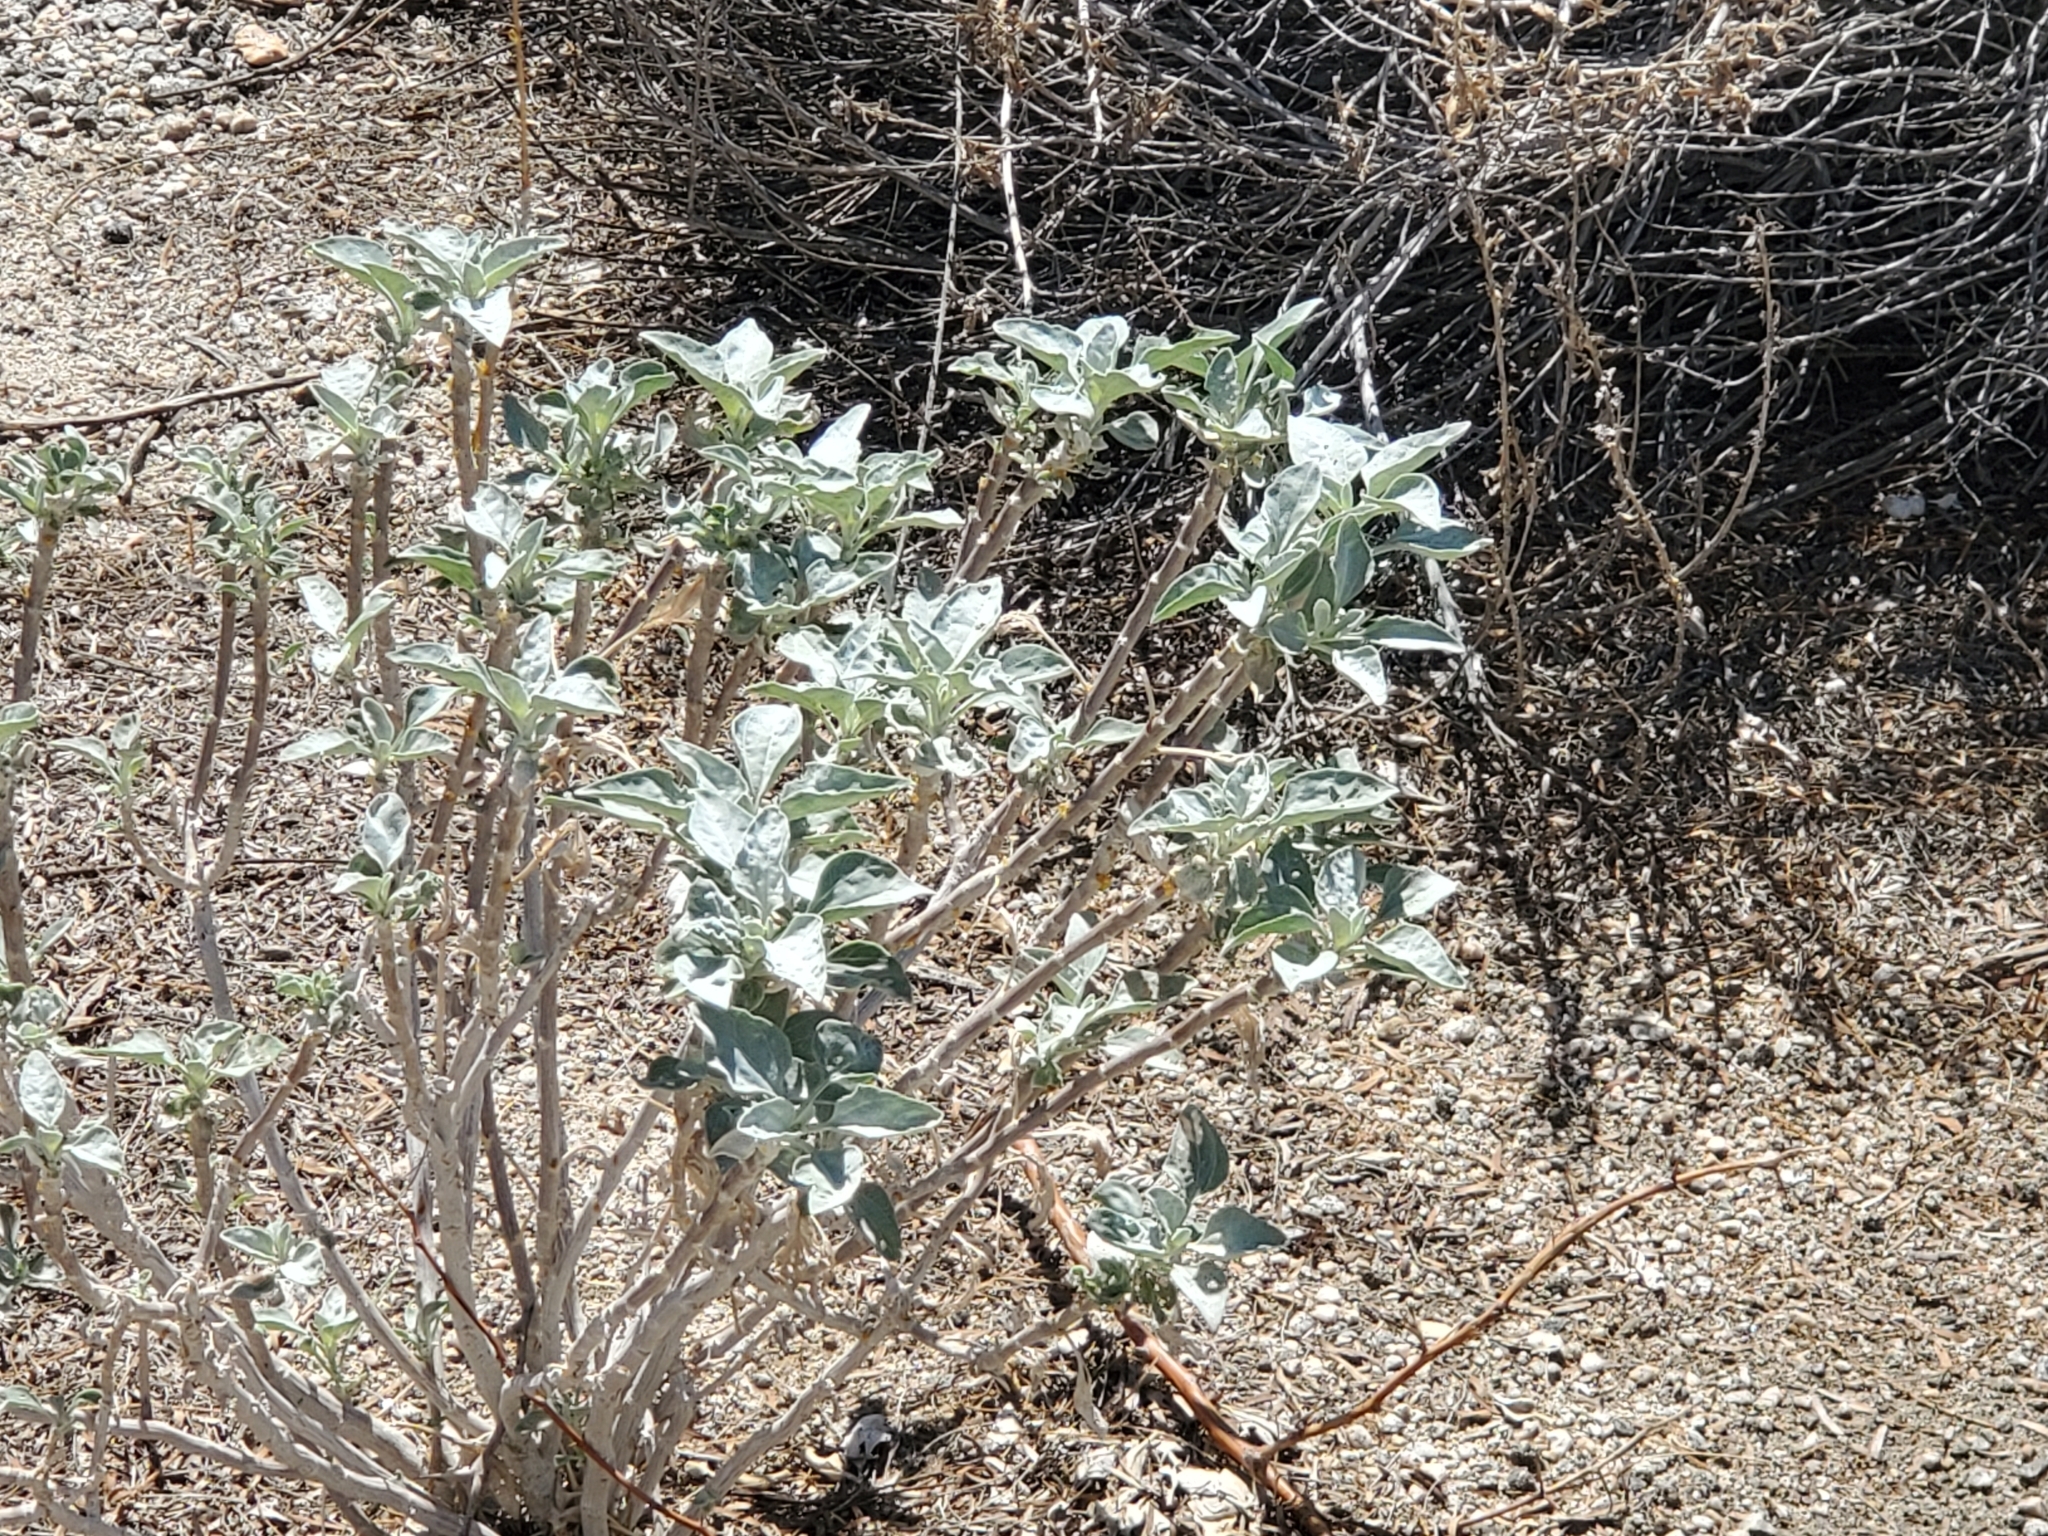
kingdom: Plantae
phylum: Tracheophyta
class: Magnoliopsida
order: Asterales
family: Asteraceae
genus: Encelia
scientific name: Encelia farinosa
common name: Brittlebush
